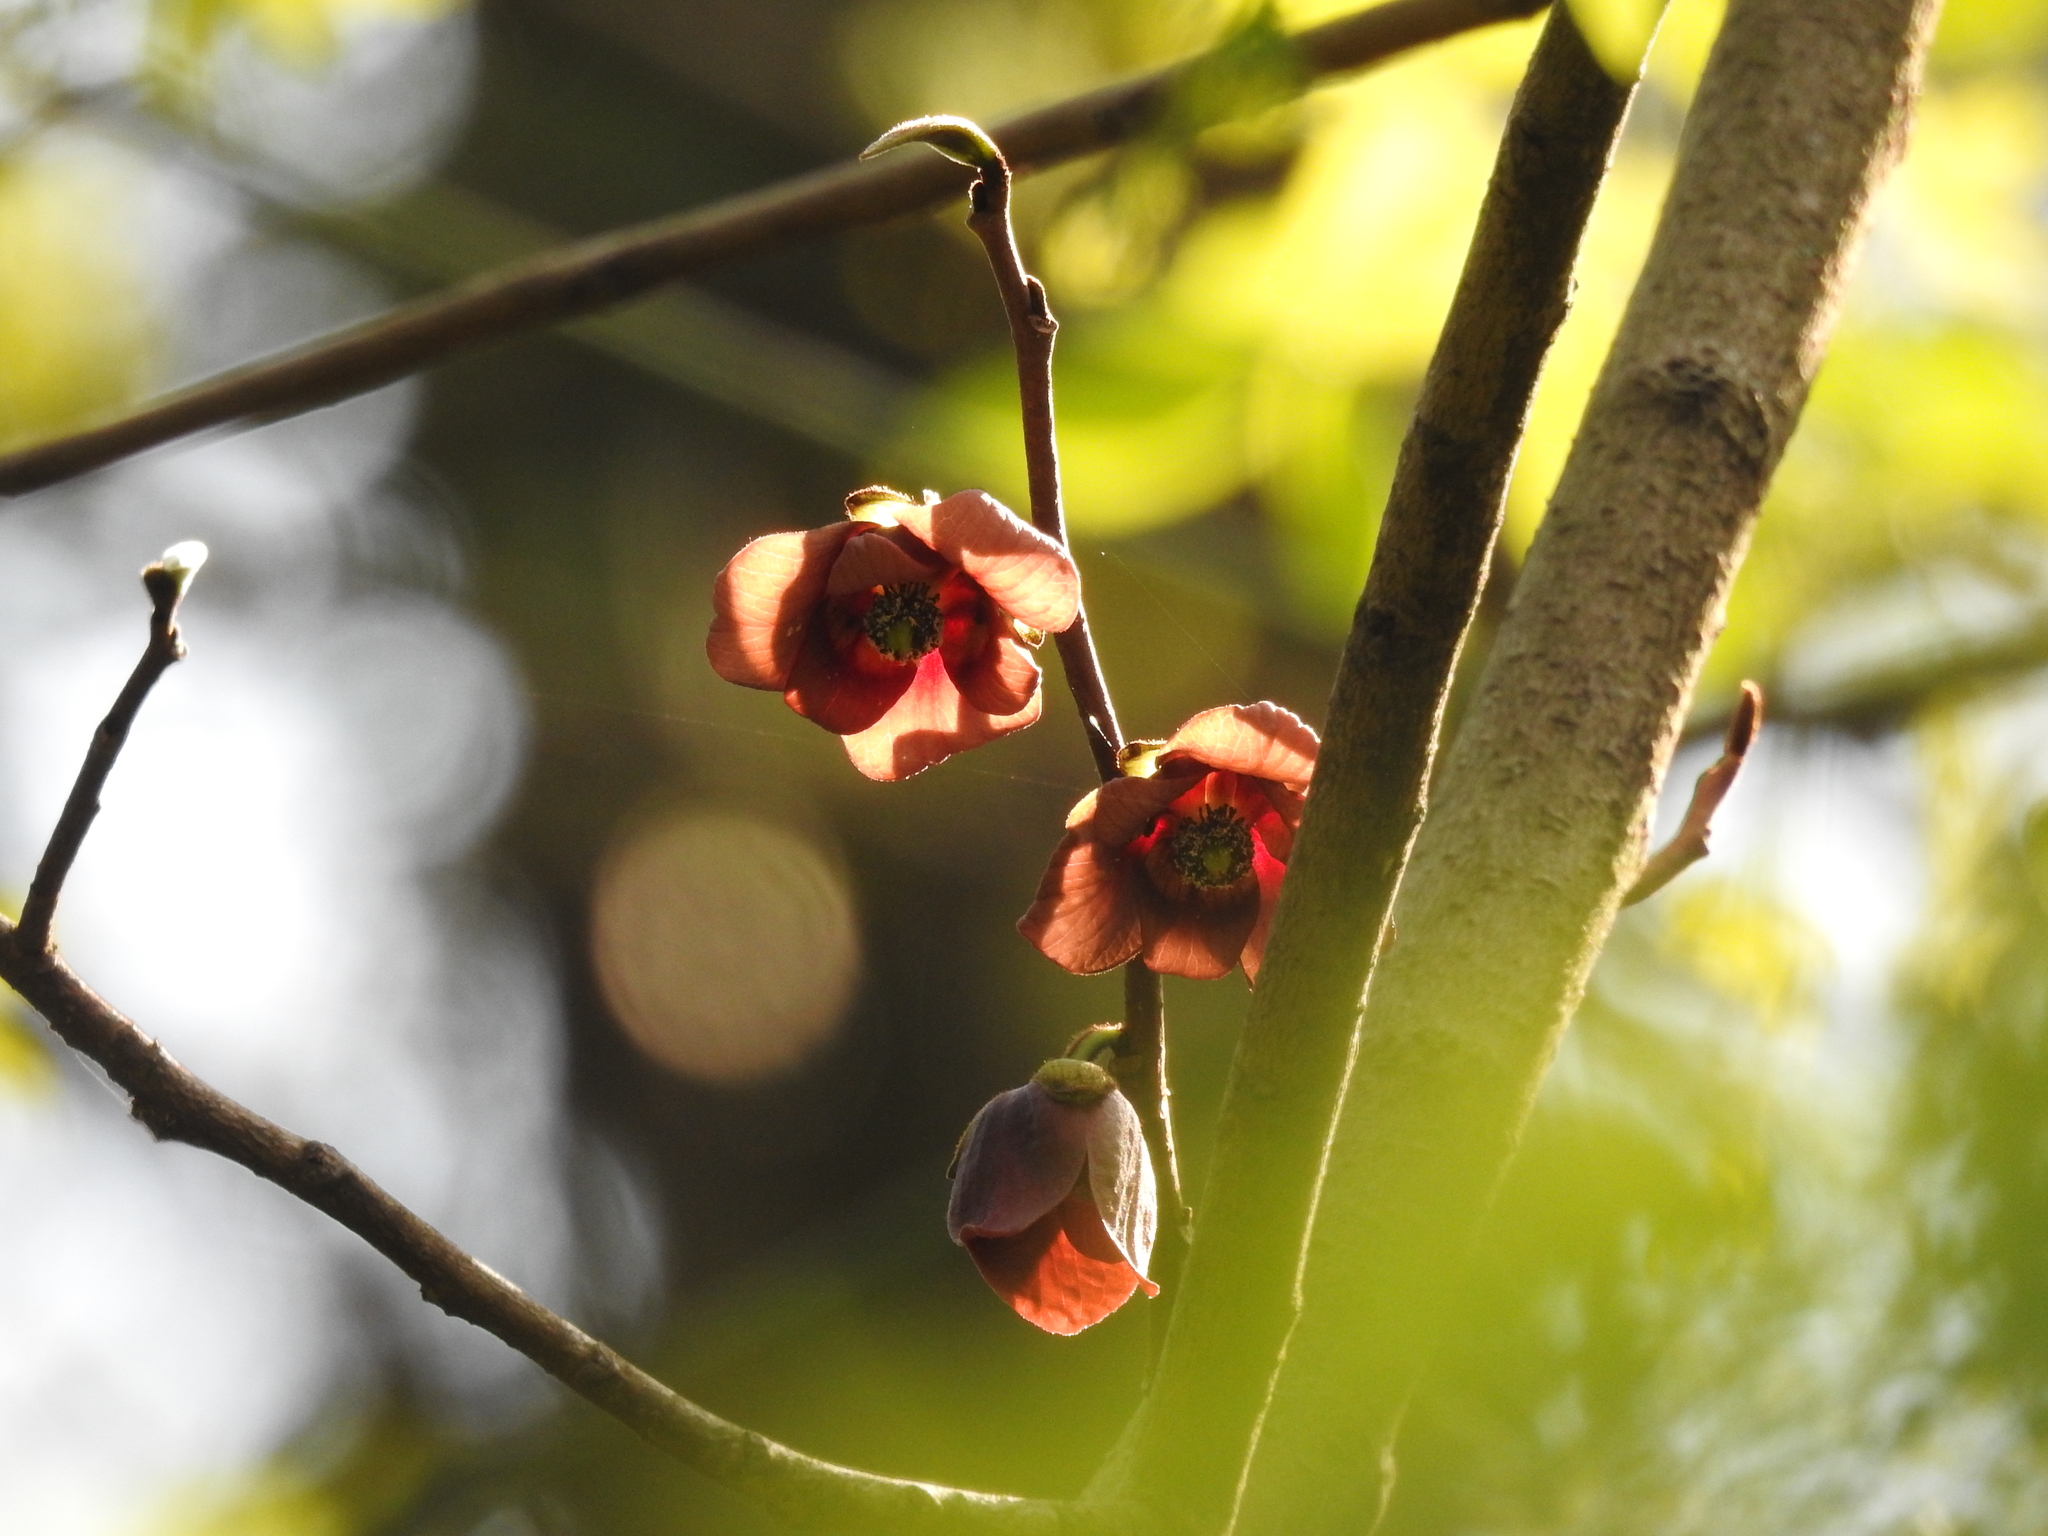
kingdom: Plantae
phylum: Tracheophyta
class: Magnoliopsida
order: Magnoliales
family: Annonaceae
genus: Asimina
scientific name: Asimina triloba
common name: Dog-banana
